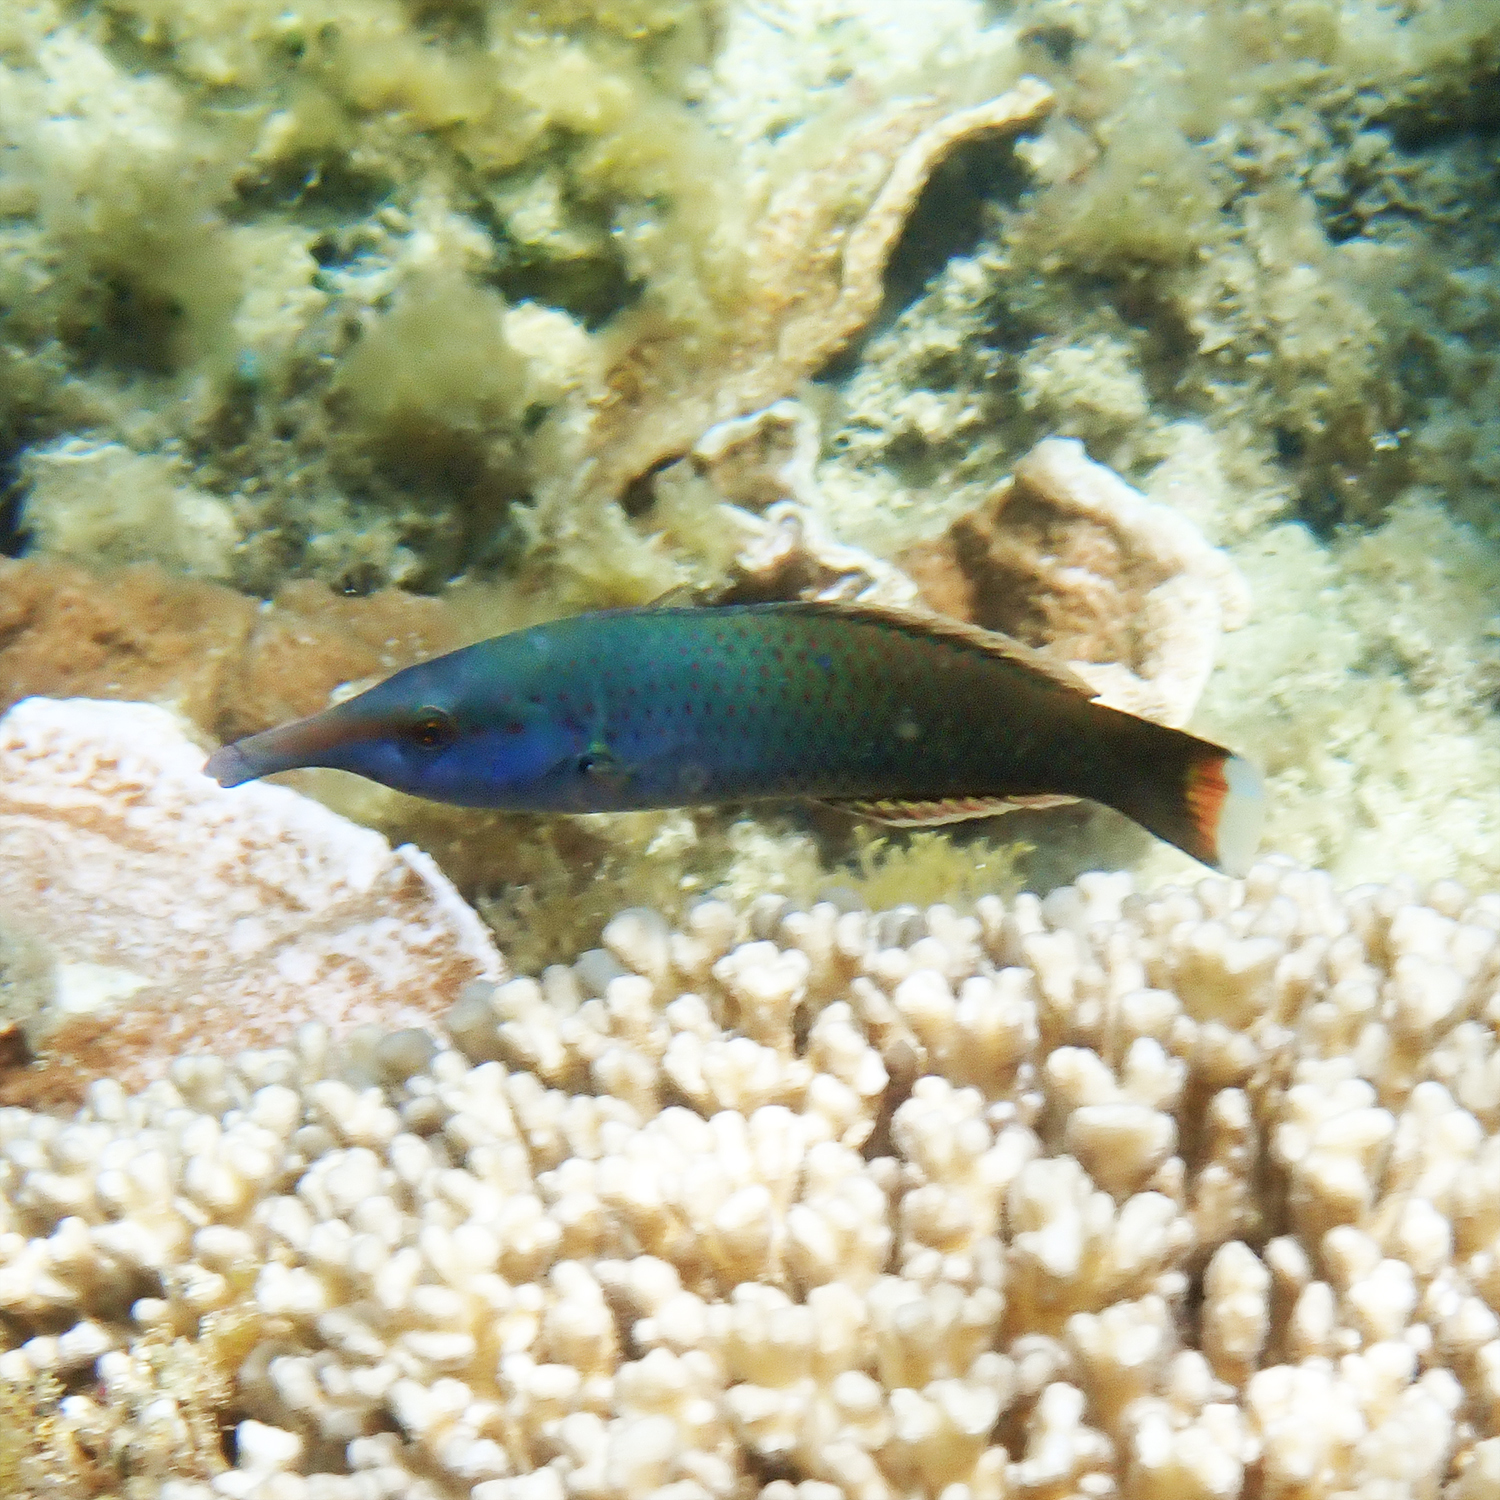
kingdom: Animalia
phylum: Chordata
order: Perciformes
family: Labridae
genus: Gomphosus
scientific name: Gomphosus varius
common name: Bird wrasse
